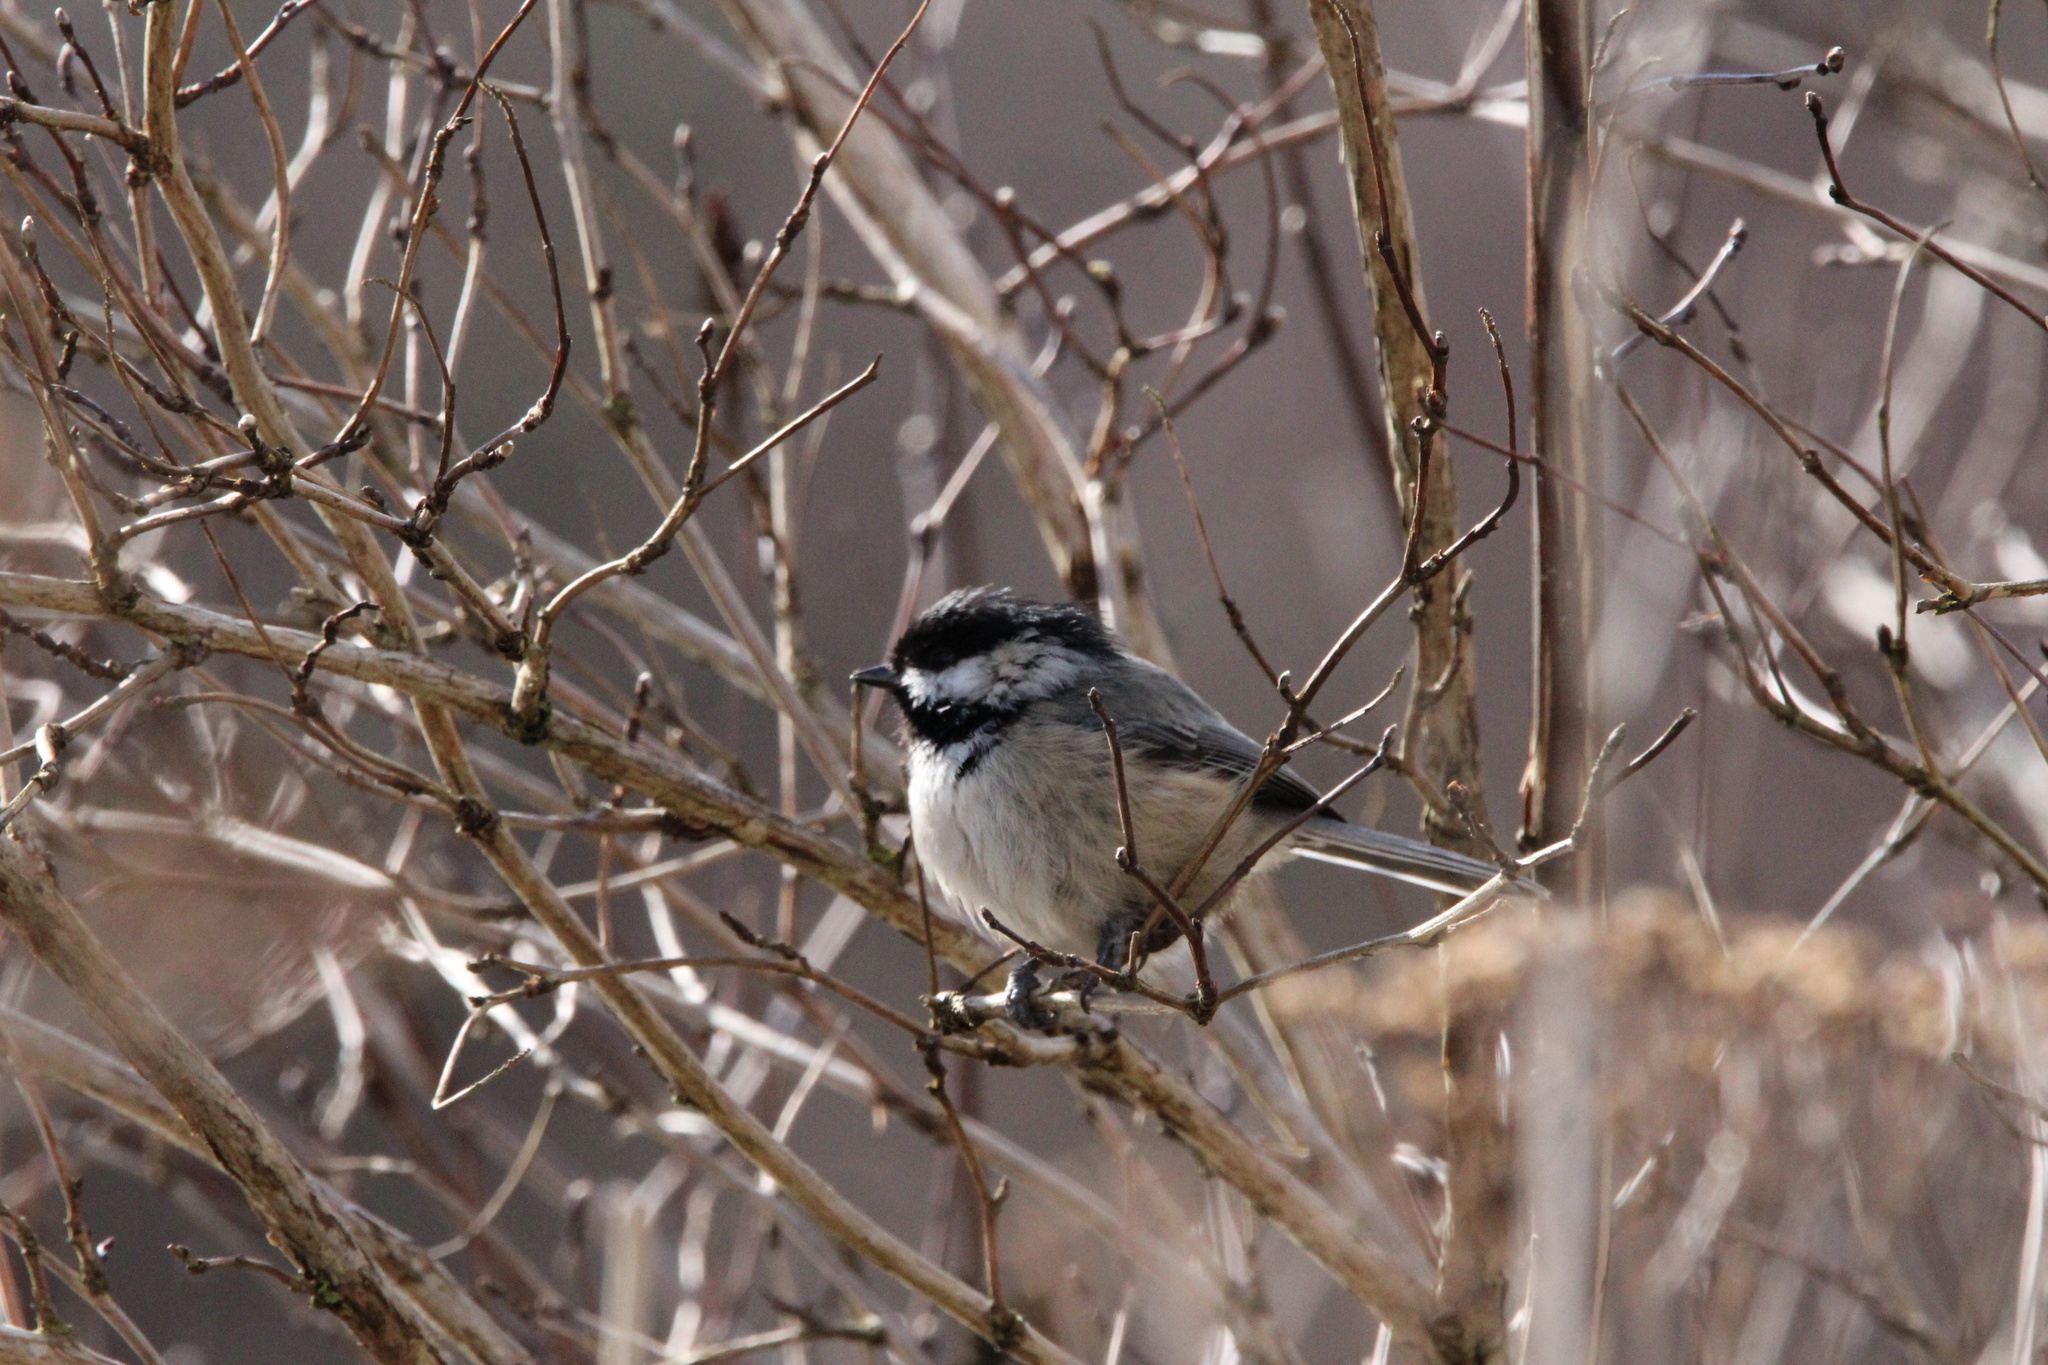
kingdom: Animalia
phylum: Chordata
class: Aves
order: Passeriformes
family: Paridae
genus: Poecile
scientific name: Poecile atricapillus
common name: Black-capped chickadee
